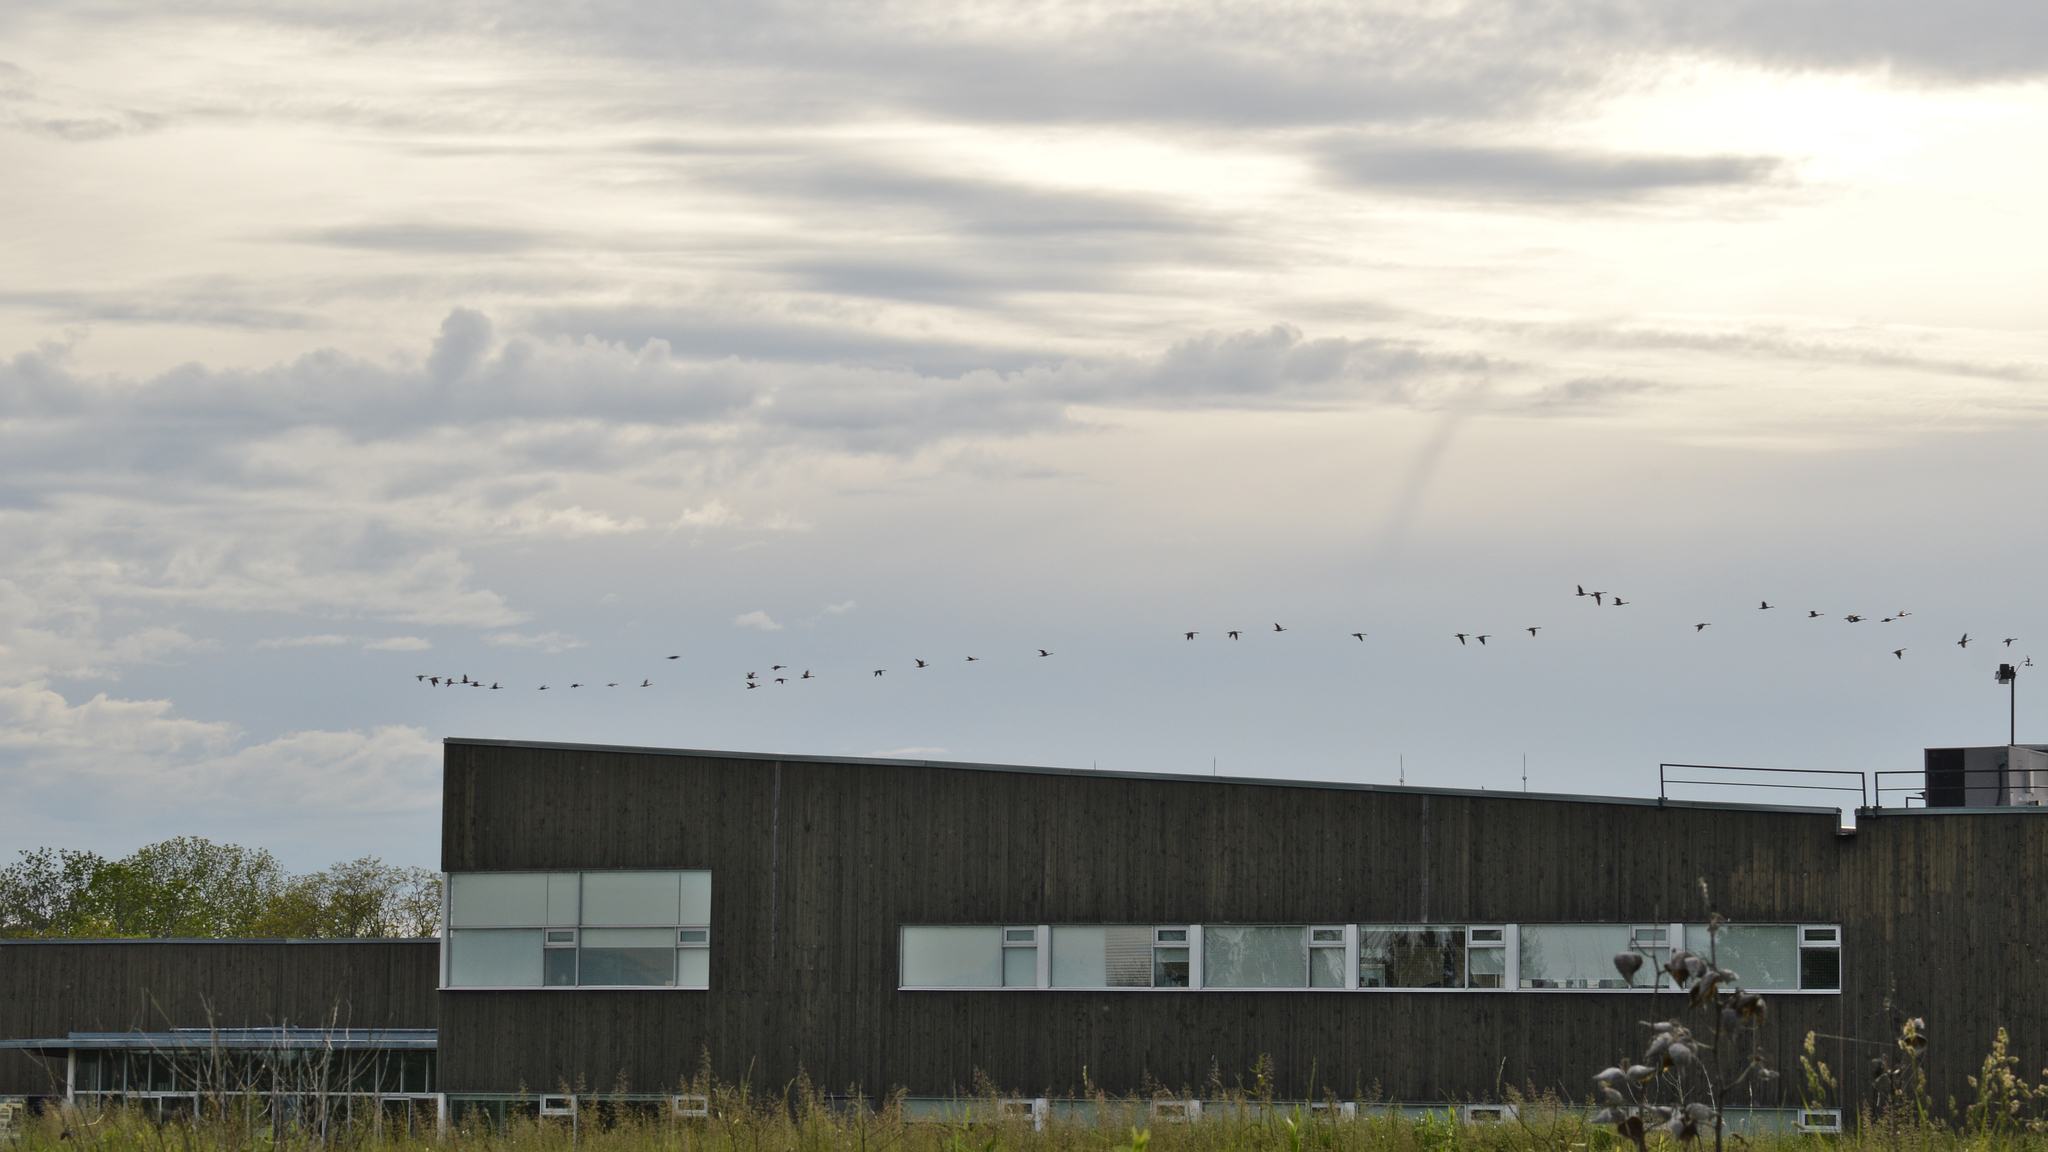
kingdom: Animalia
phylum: Chordata
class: Aves
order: Anseriformes
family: Anatidae
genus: Branta
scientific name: Branta canadensis
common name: Canada goose
